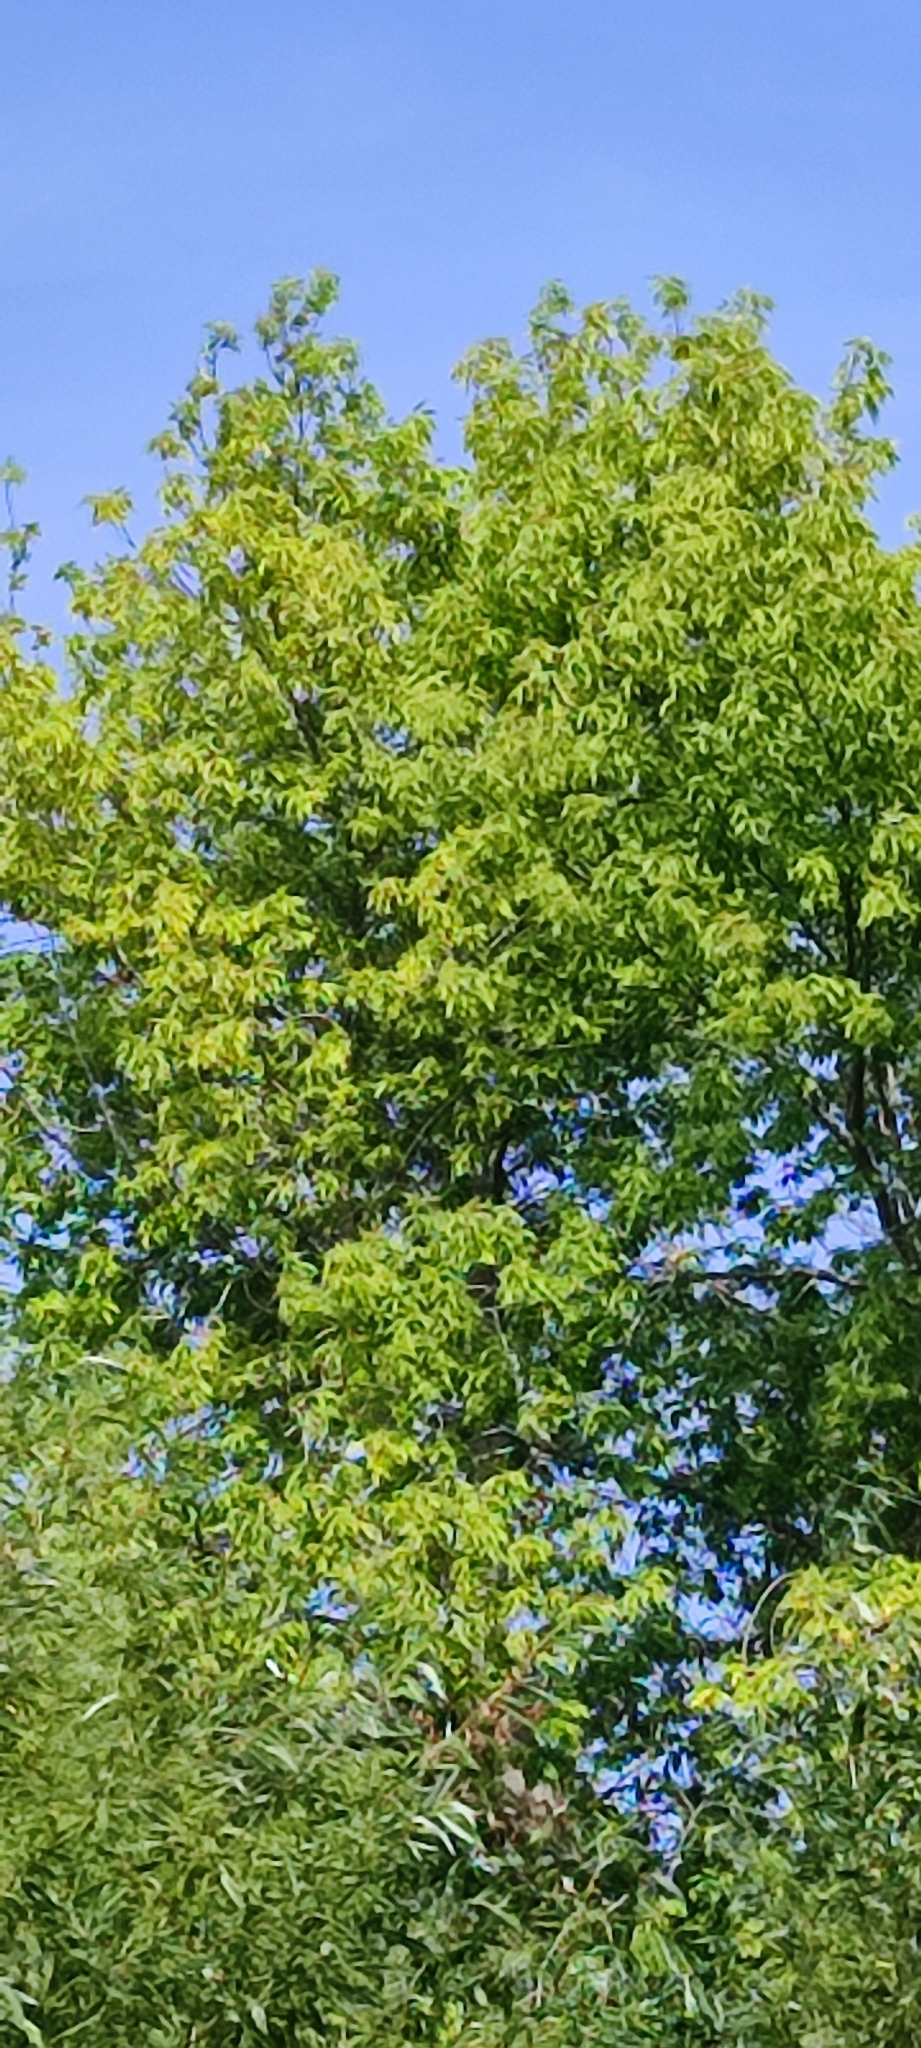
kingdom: Plantae
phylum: Tracheophyta
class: Magnoliopsida
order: Sapindales
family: Sapindaceae
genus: Acer
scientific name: Acer negundo
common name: Ashleaf maple
